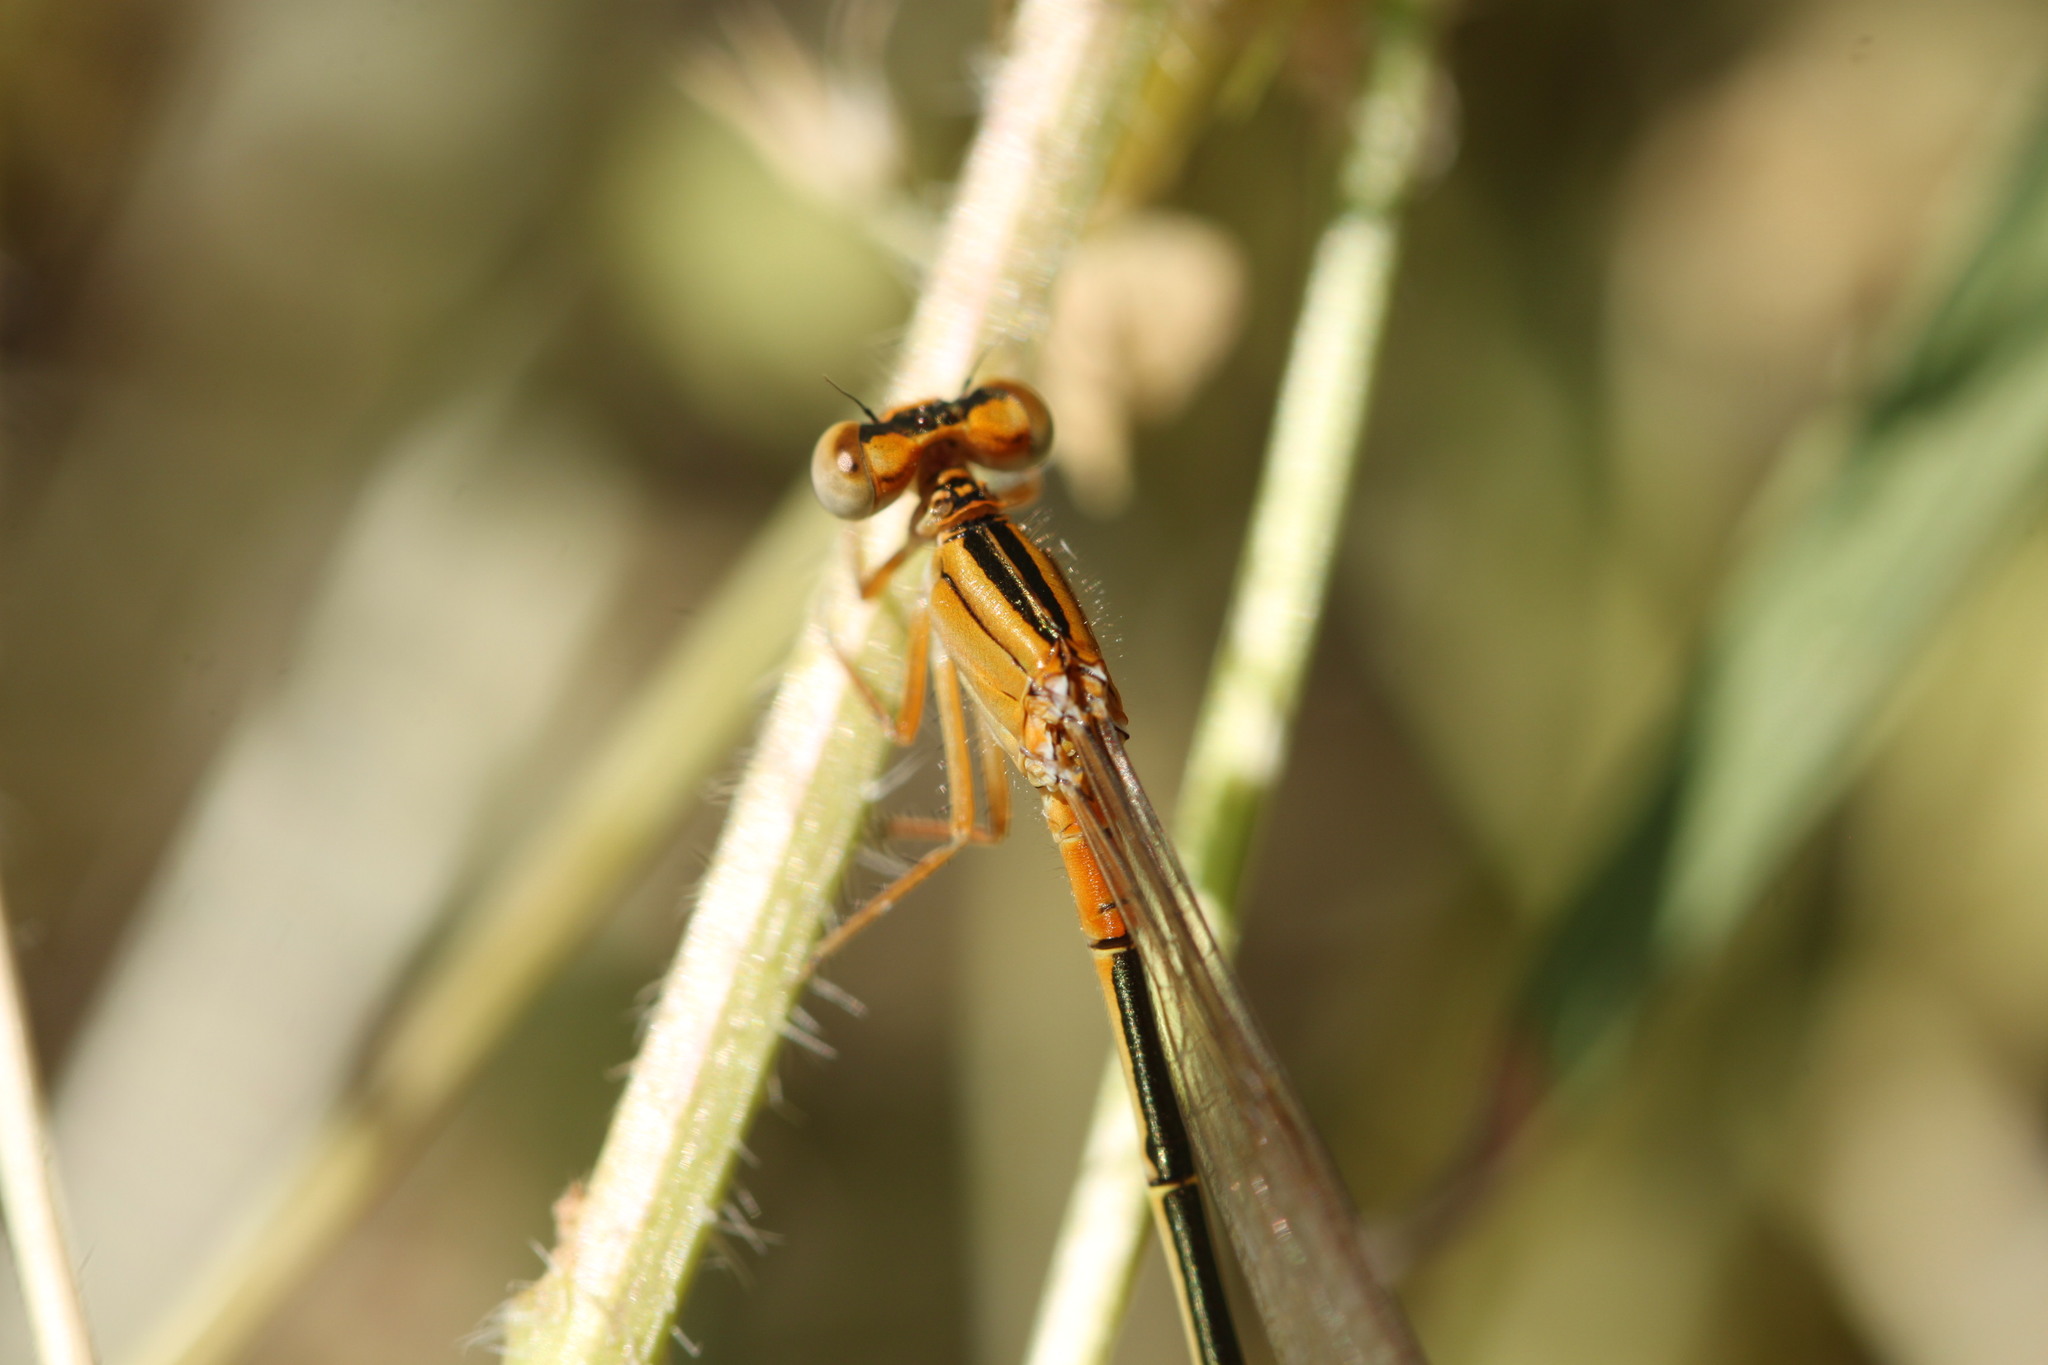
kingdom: Animalia
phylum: Arthropoda
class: Insecta
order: Odonata
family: Coenagrionidae
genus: Ischnura
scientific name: Ischnura intermedia
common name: Dumont's bluetail
